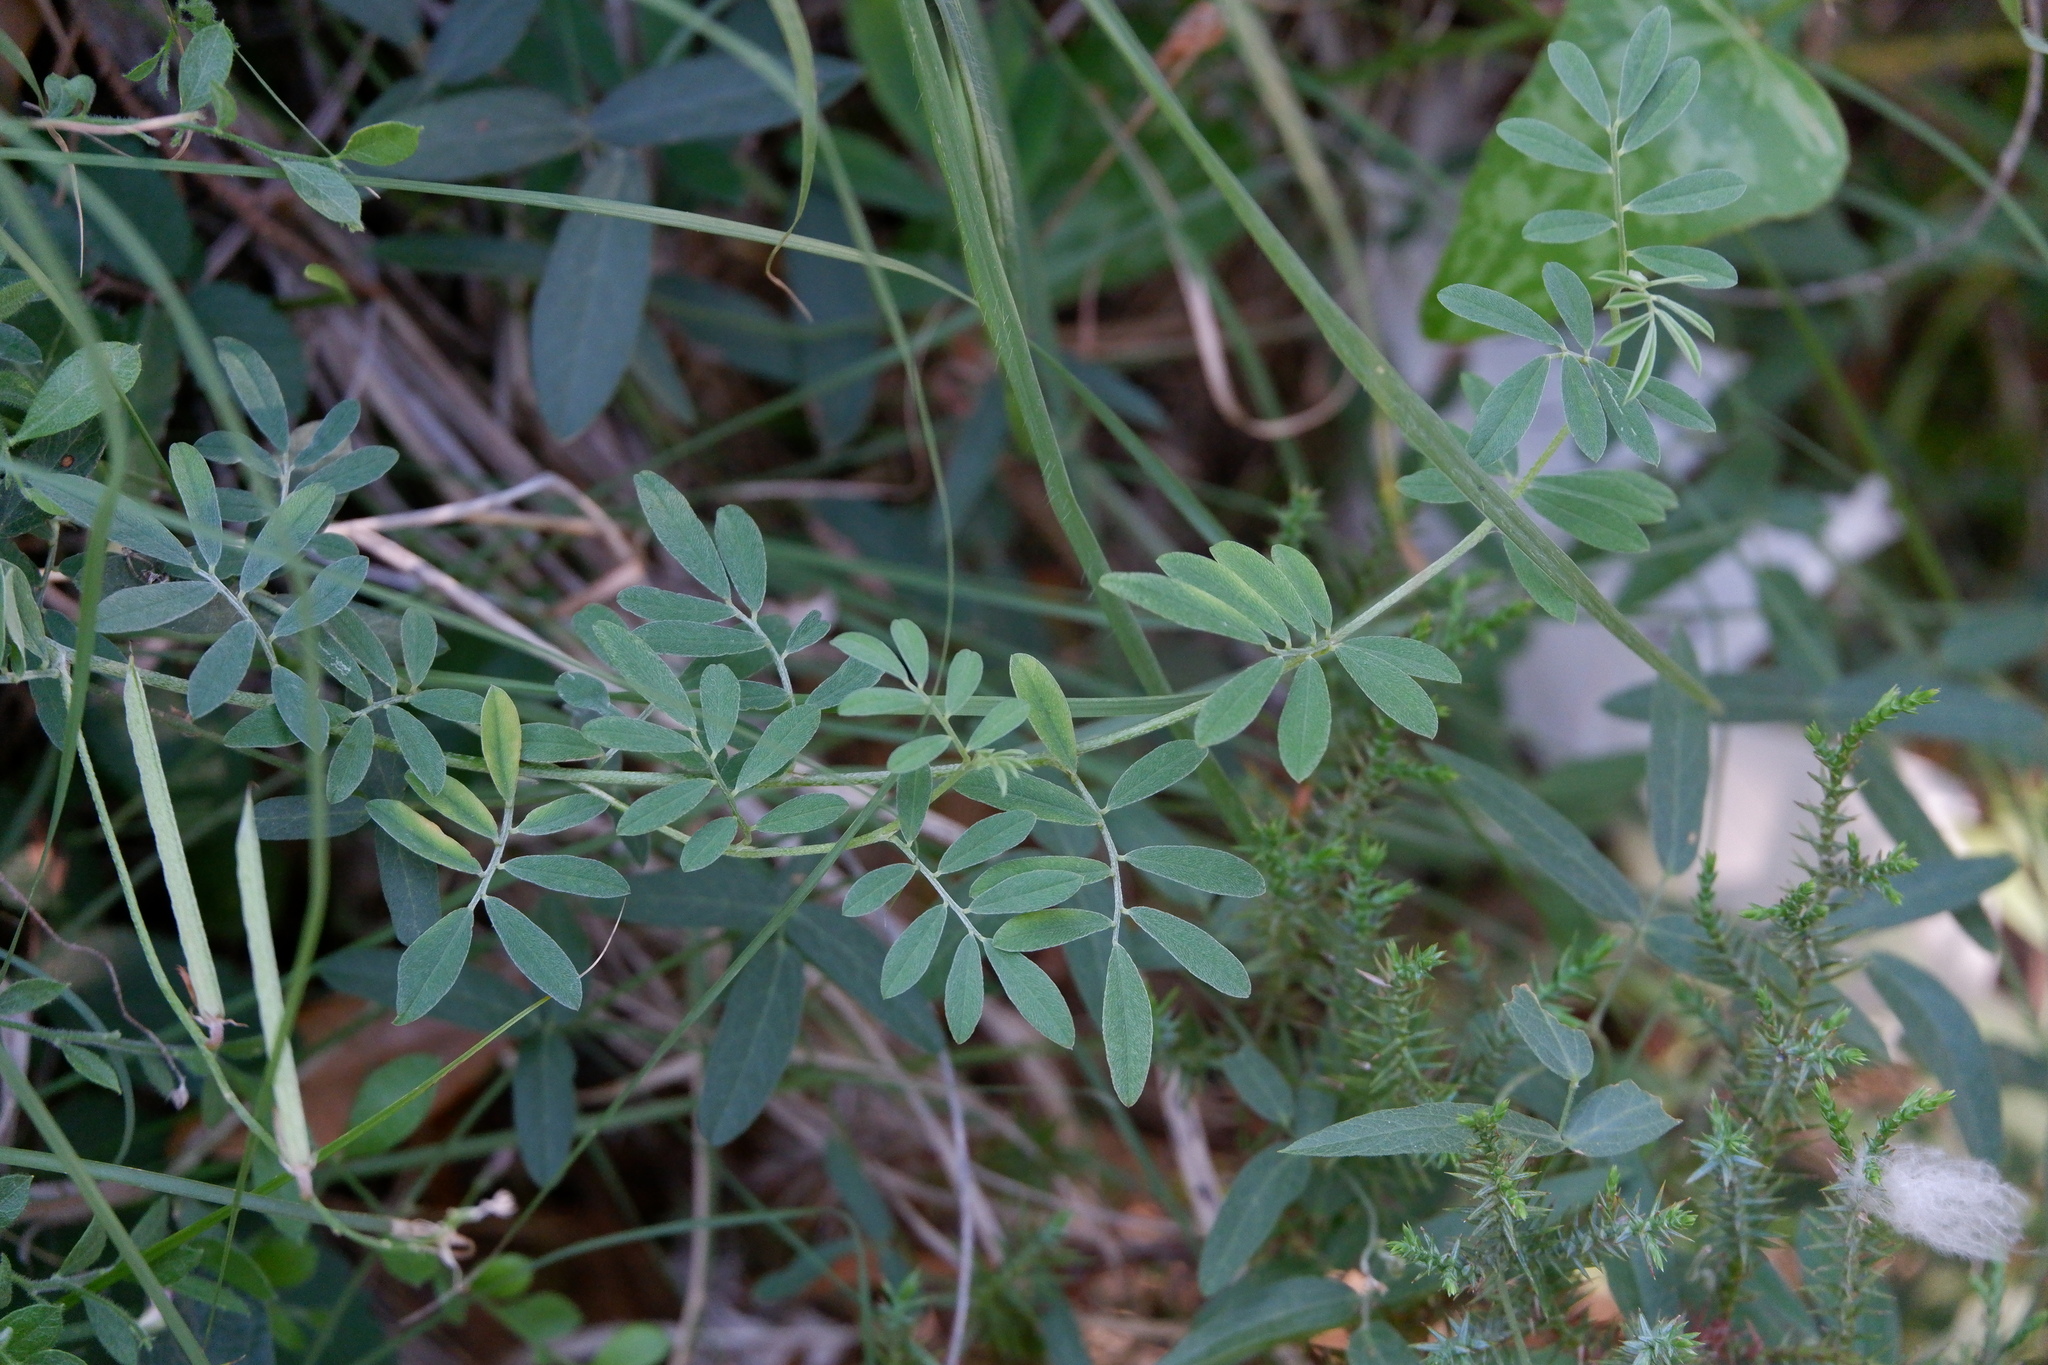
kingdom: Plantae
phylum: Tracheophyta
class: Magnoliopsida
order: Fabales
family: Fabaceae
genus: Indigofera
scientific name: Indigofera miniata
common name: Coast indigo
